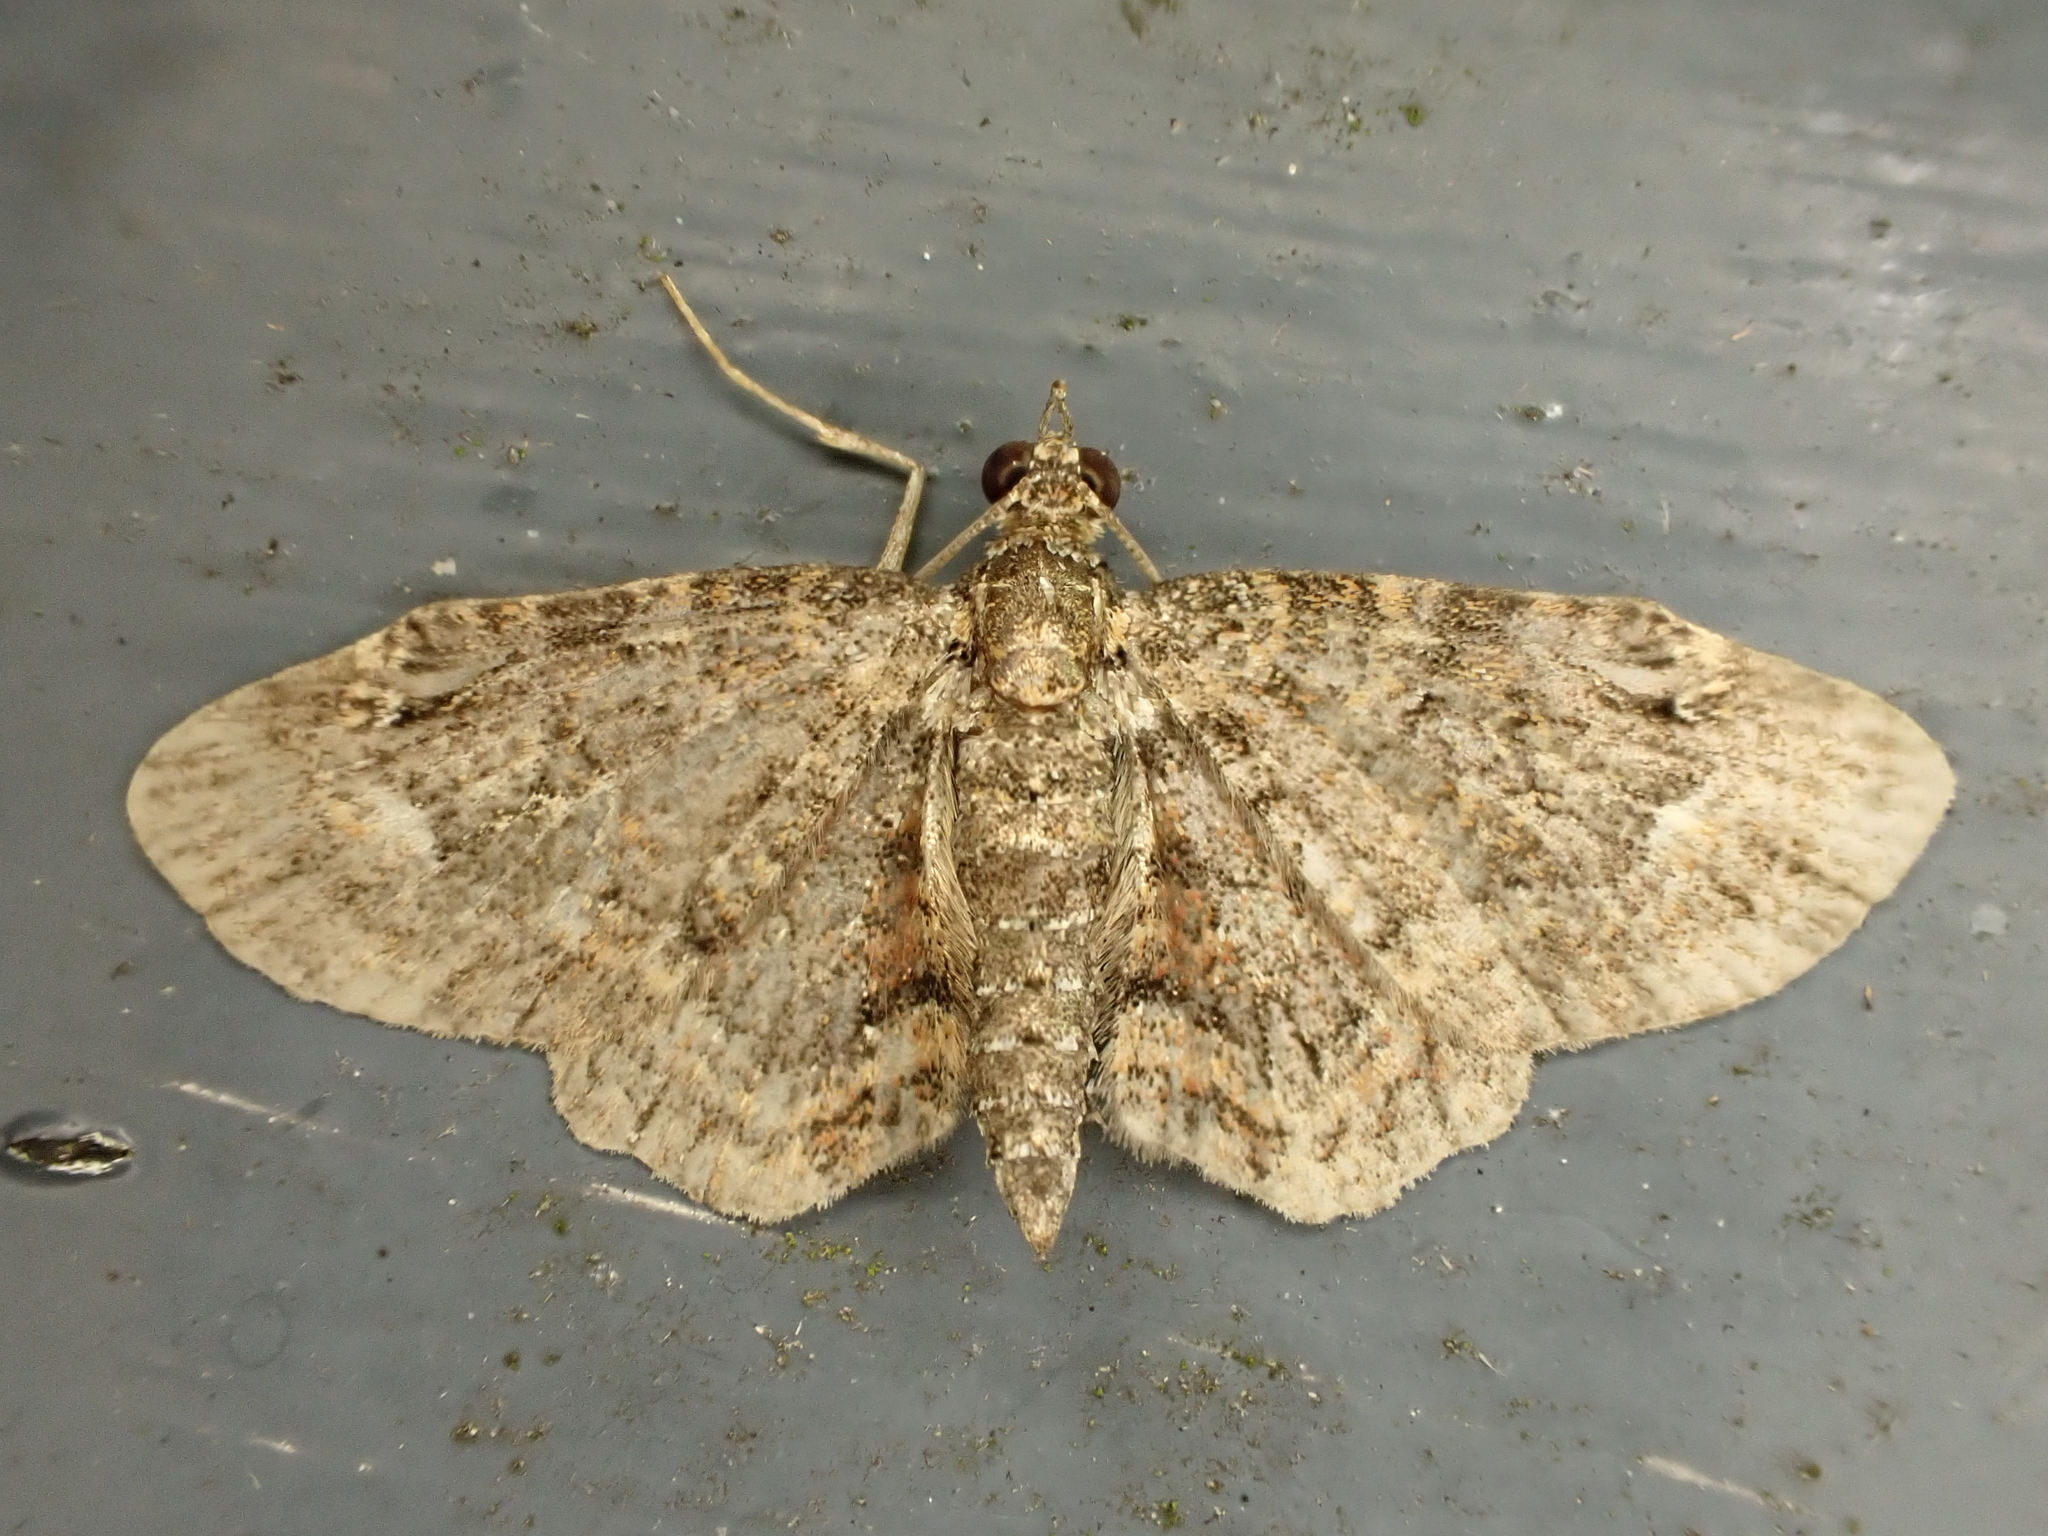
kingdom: Animalia
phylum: Arthropoda
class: Insecta
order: Lepidoptera
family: Geometridae
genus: Pasiphilodes
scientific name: Pasiphilodes testulata
